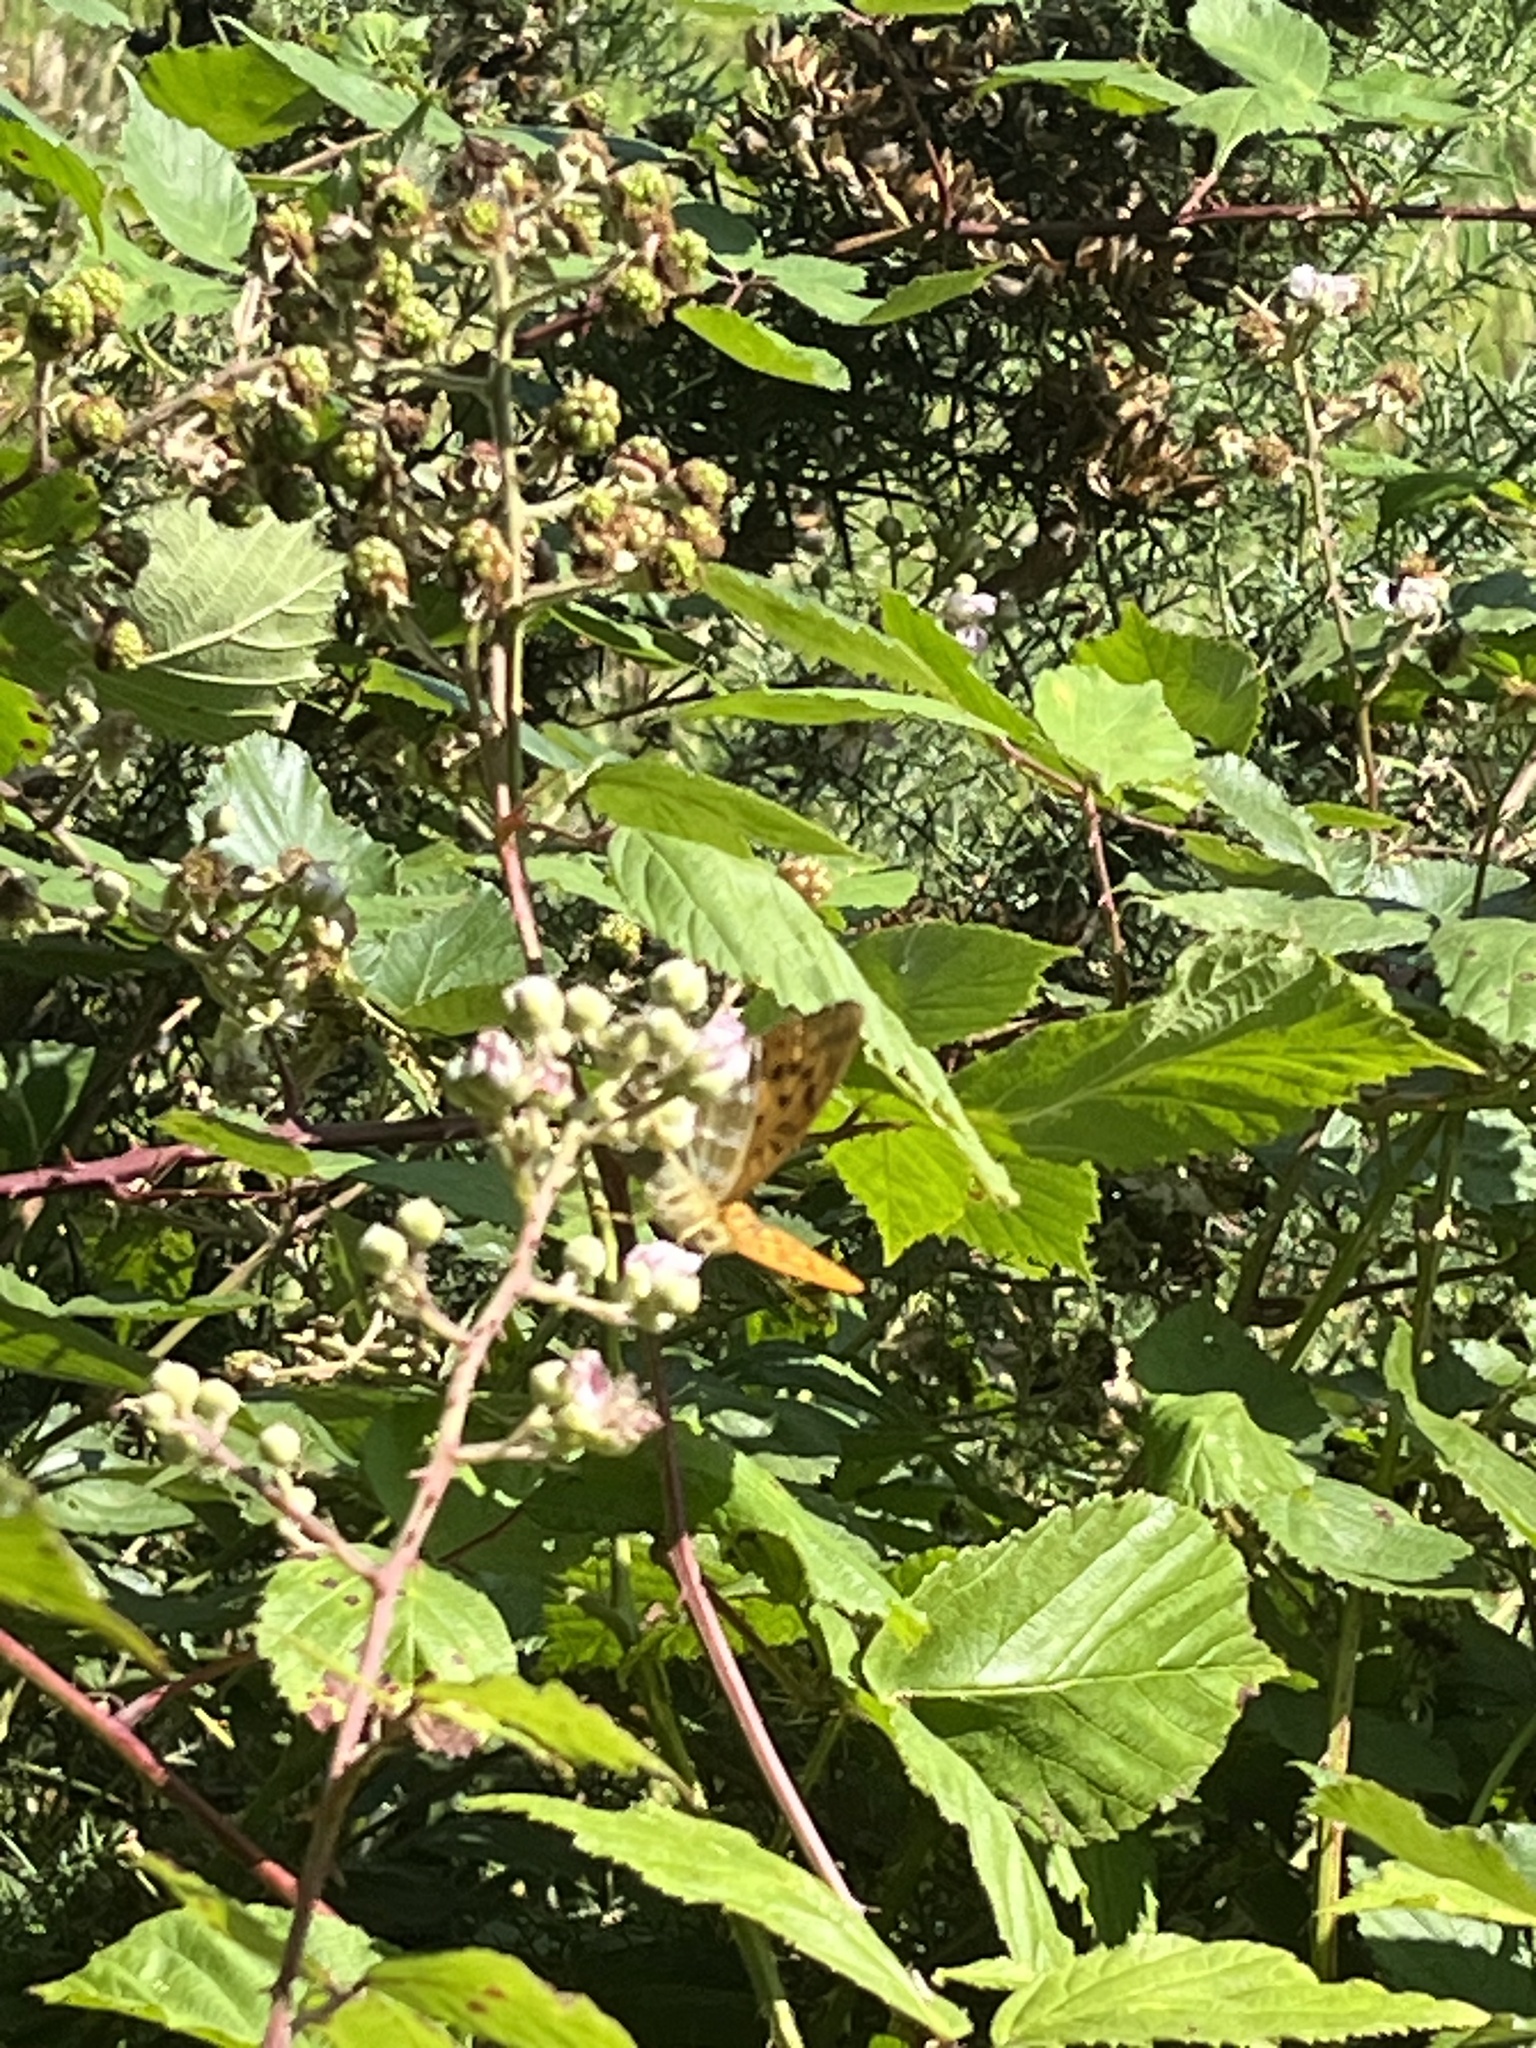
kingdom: Animalia
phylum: Arthropoda
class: Insecta
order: Lepidoptera
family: Nymphalidae
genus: Argynnis
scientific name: Argynnis paphia
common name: Silver-washed fritillary
